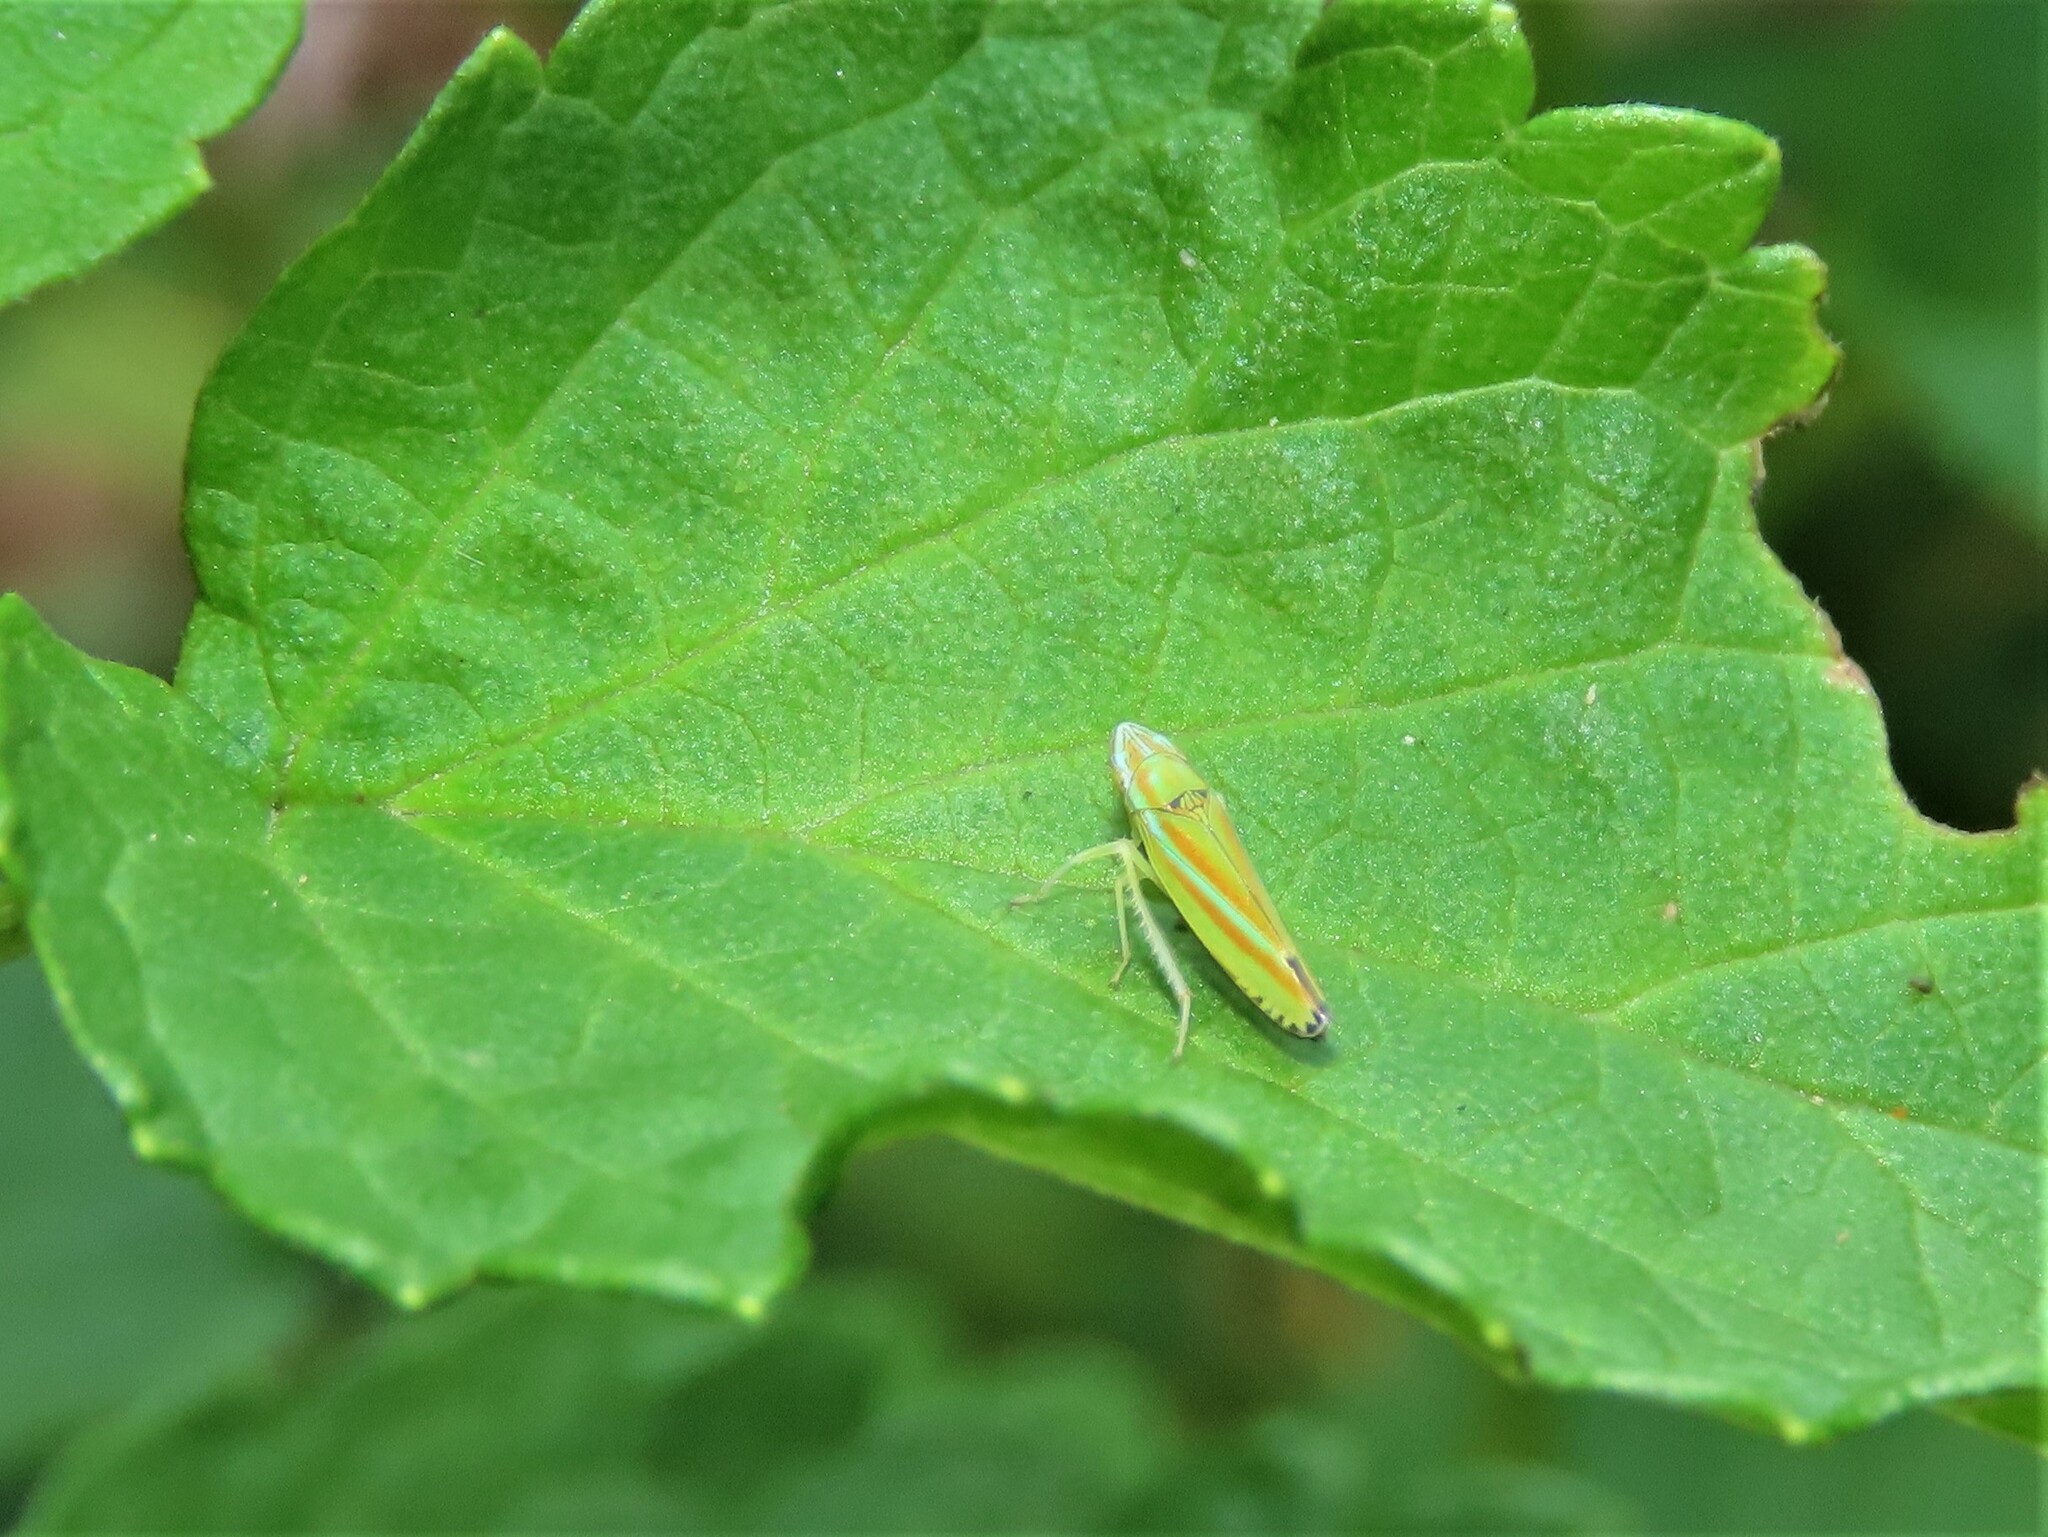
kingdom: Animalia
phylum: Arthropoda
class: Insecta
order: Hemiptera
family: Cicadellidae
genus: Graphocephala
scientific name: Graphocephala versuta
